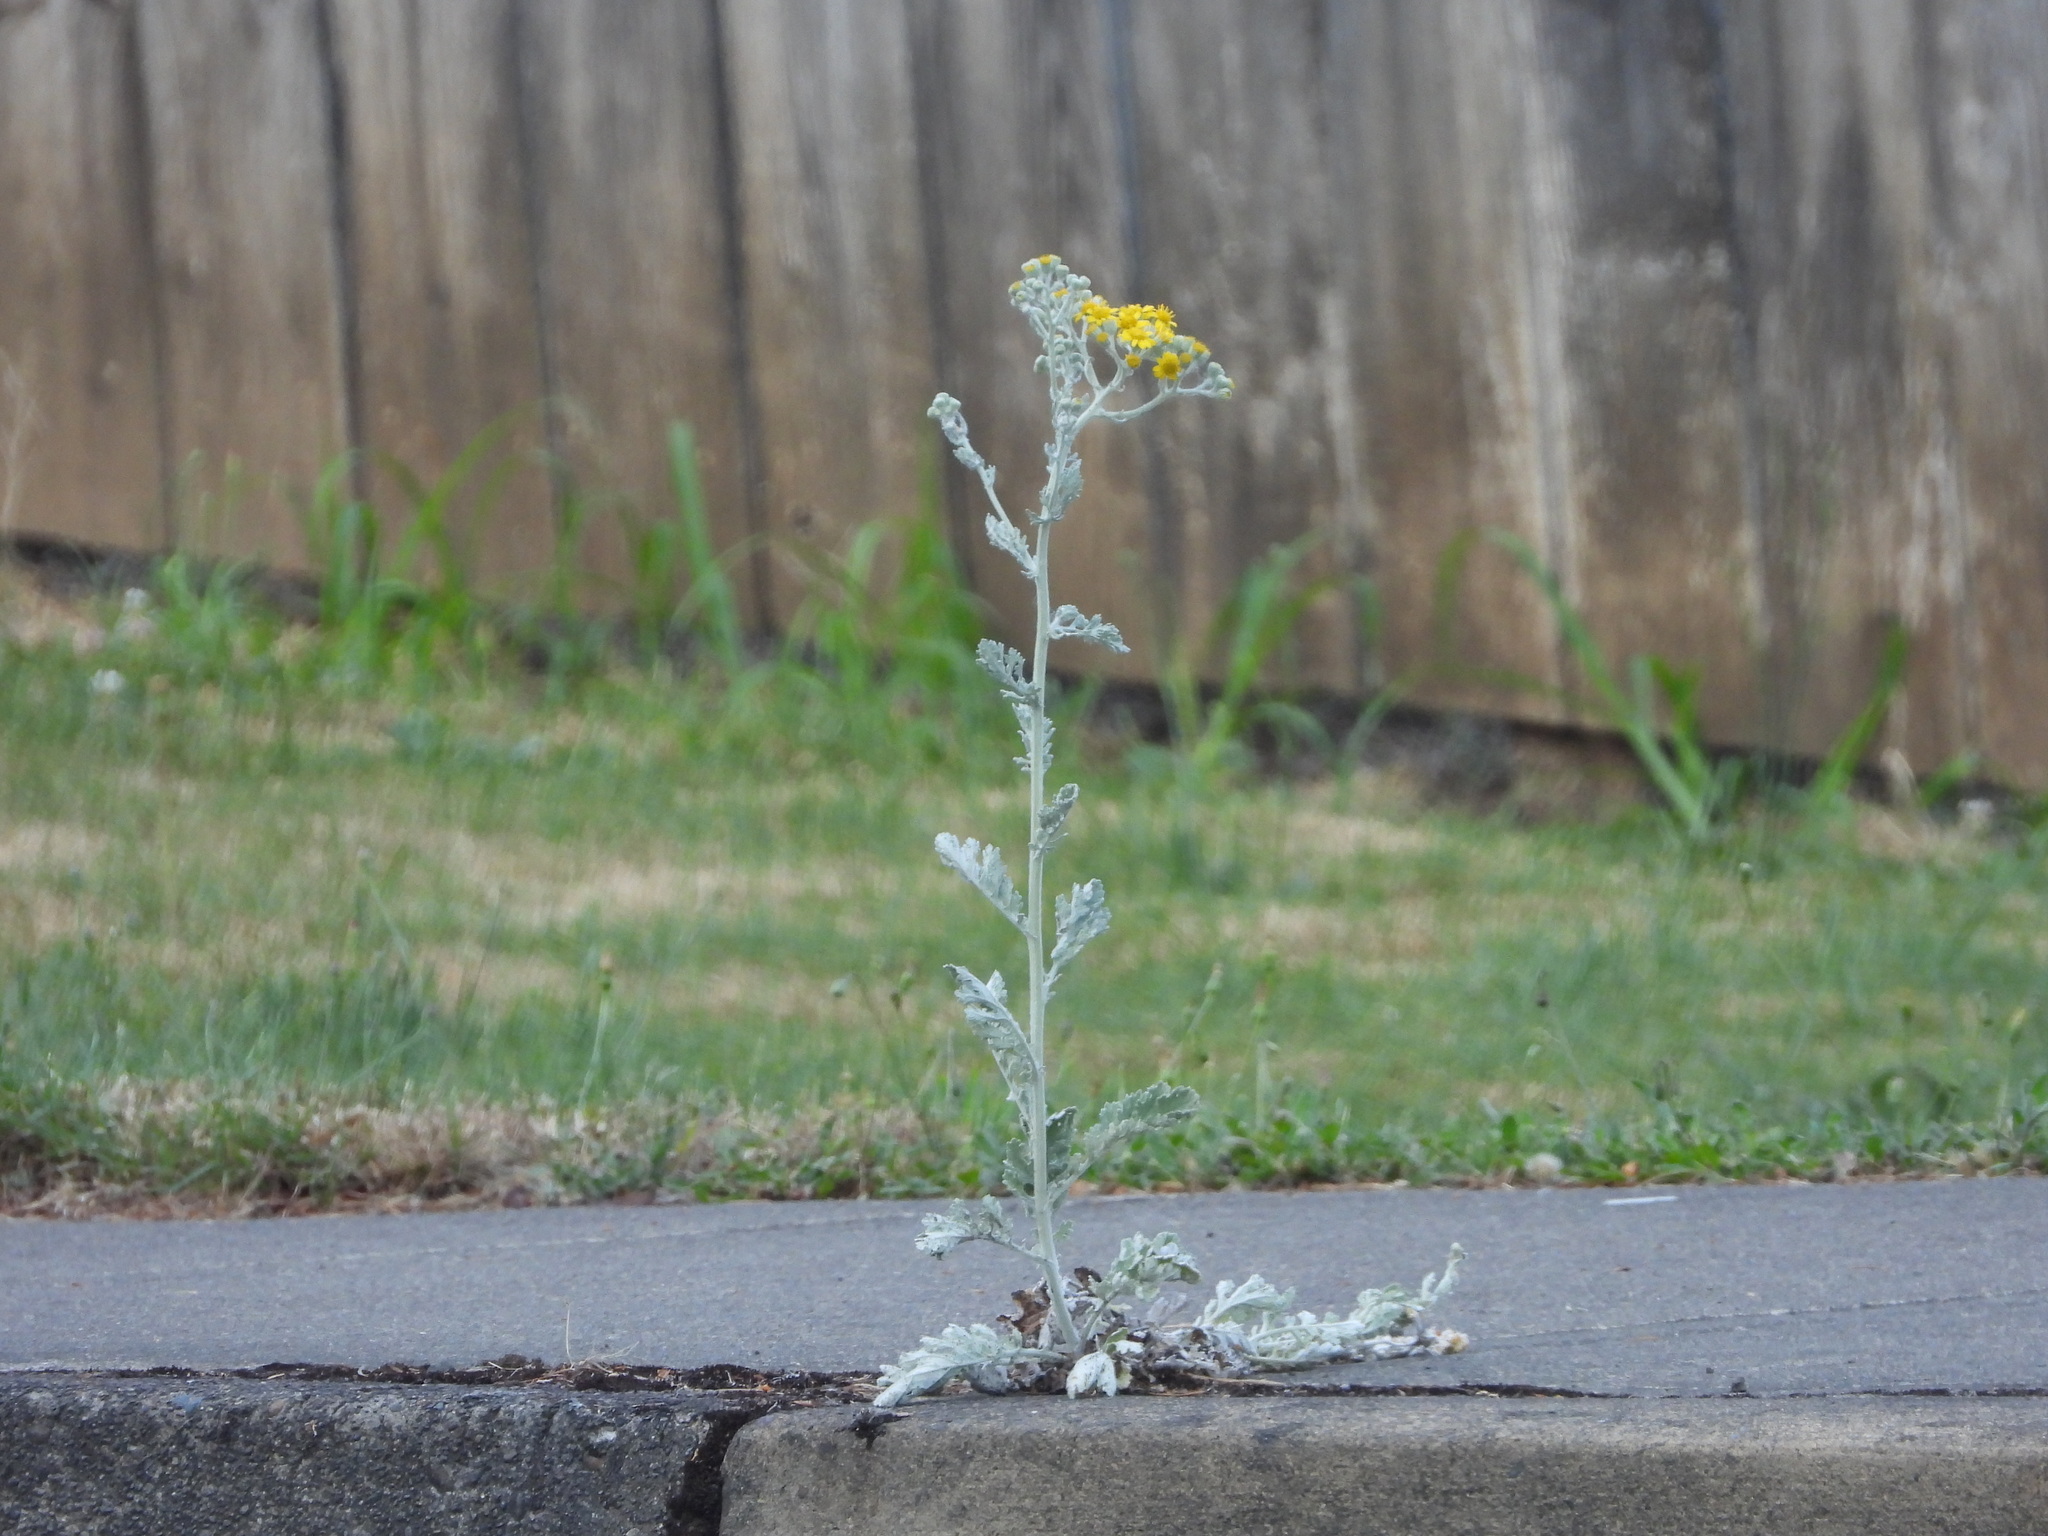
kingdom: Plantae
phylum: Tracheophyta
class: Magnoliopsida
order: Asterales
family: Asteraceae
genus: Jacobaea
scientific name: Jacobaea maritima
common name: Silver ragwort
